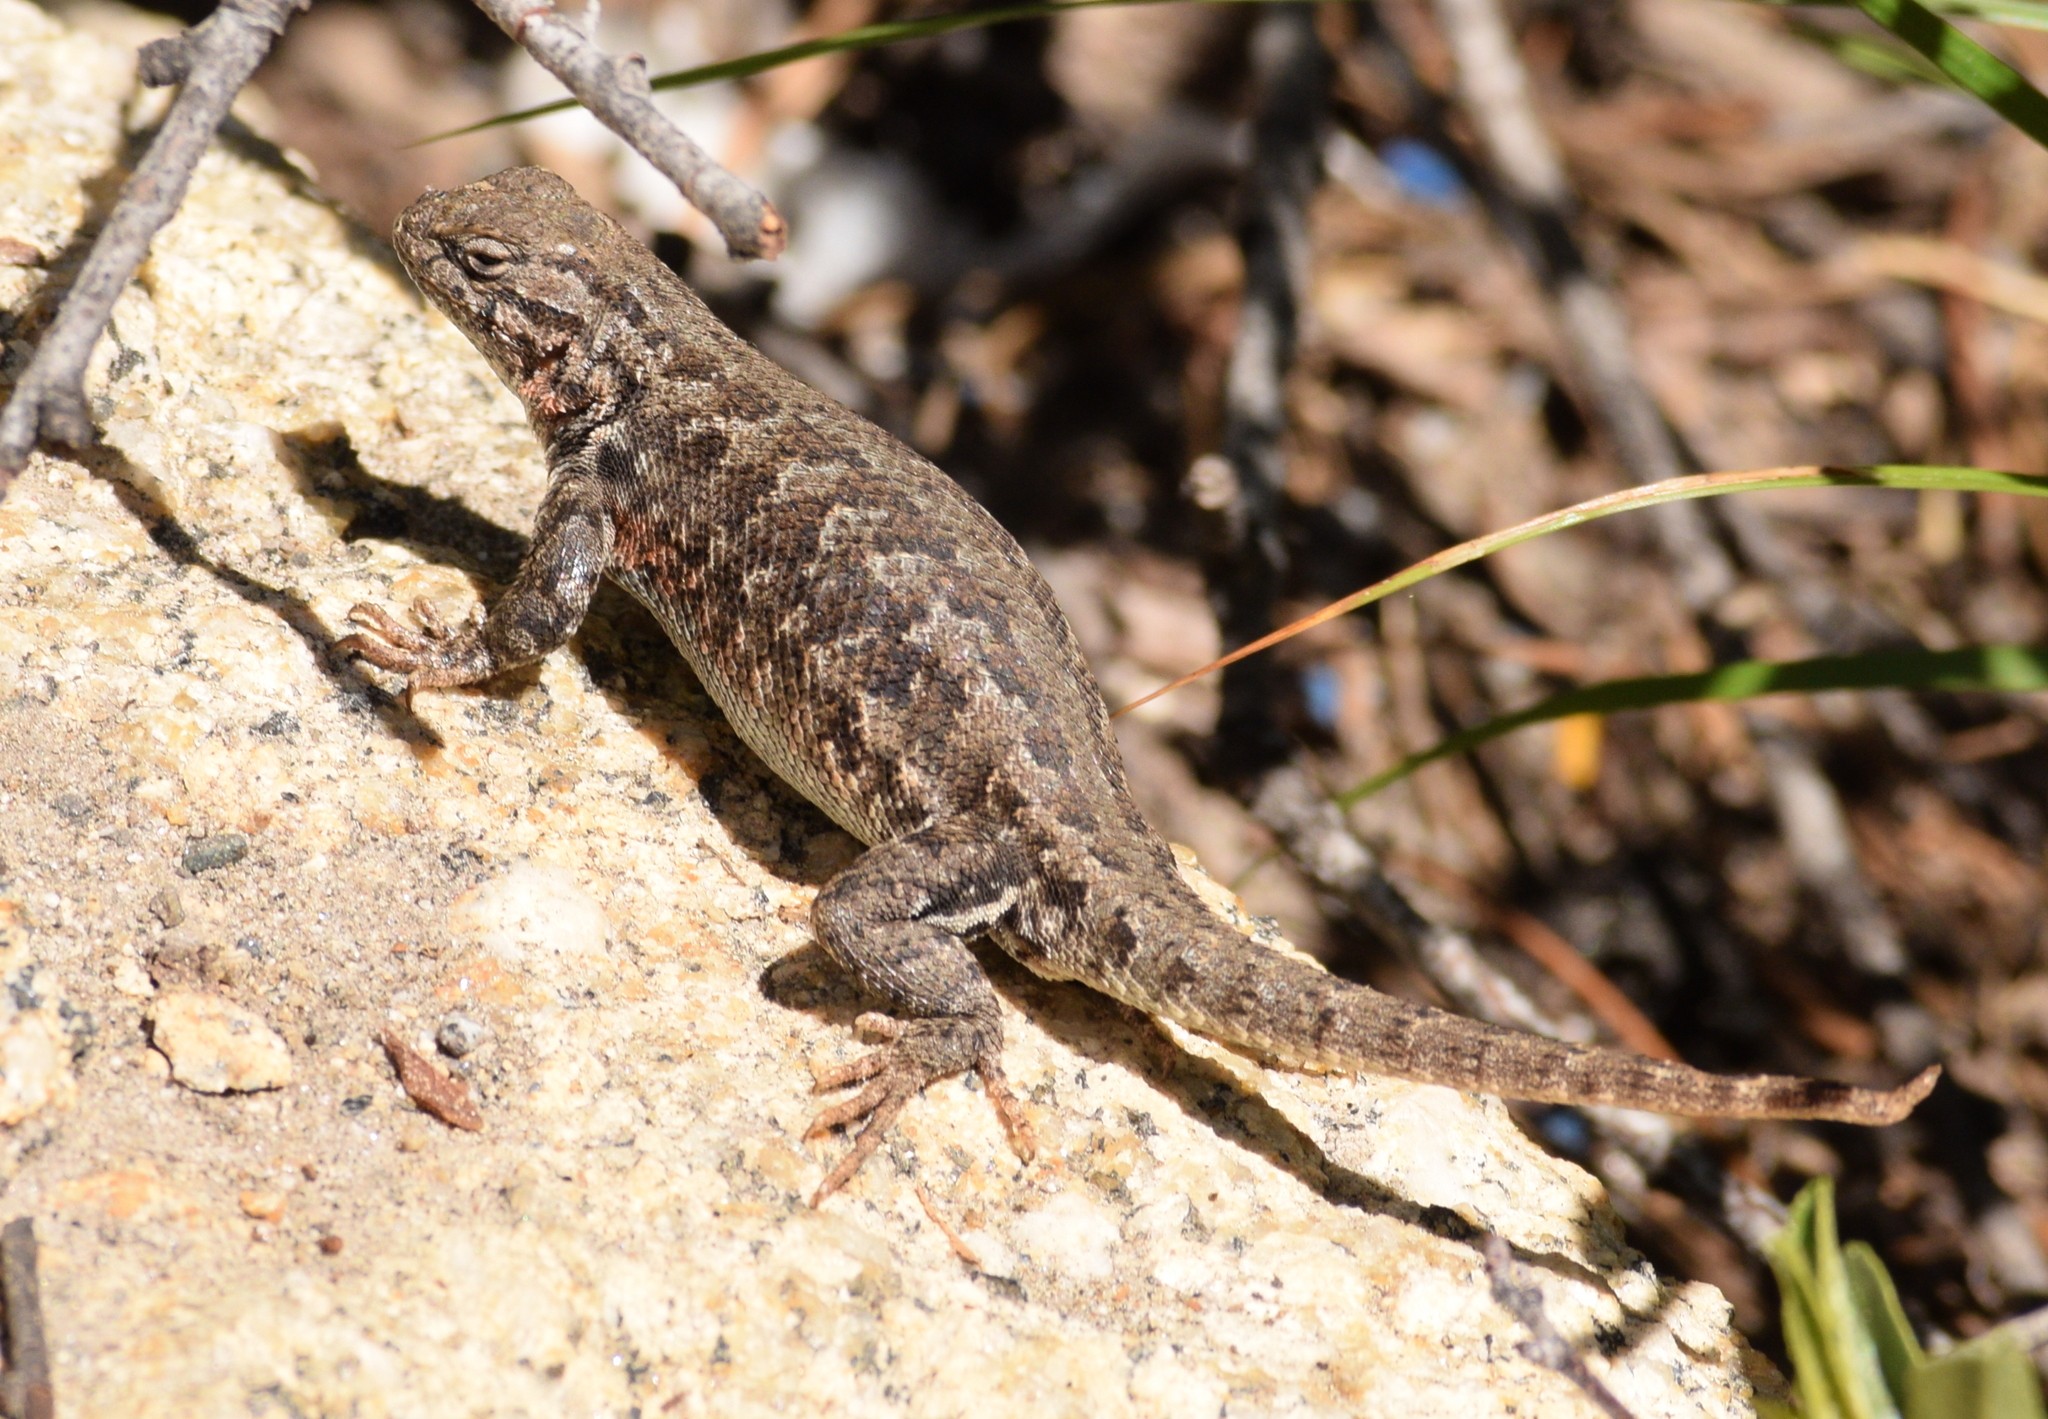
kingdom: Animalia
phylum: Chordata
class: Squamata
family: Phrynosomatidae
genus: Sceloporus
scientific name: Sceloporus graciosus
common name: Sagebrush lizard
